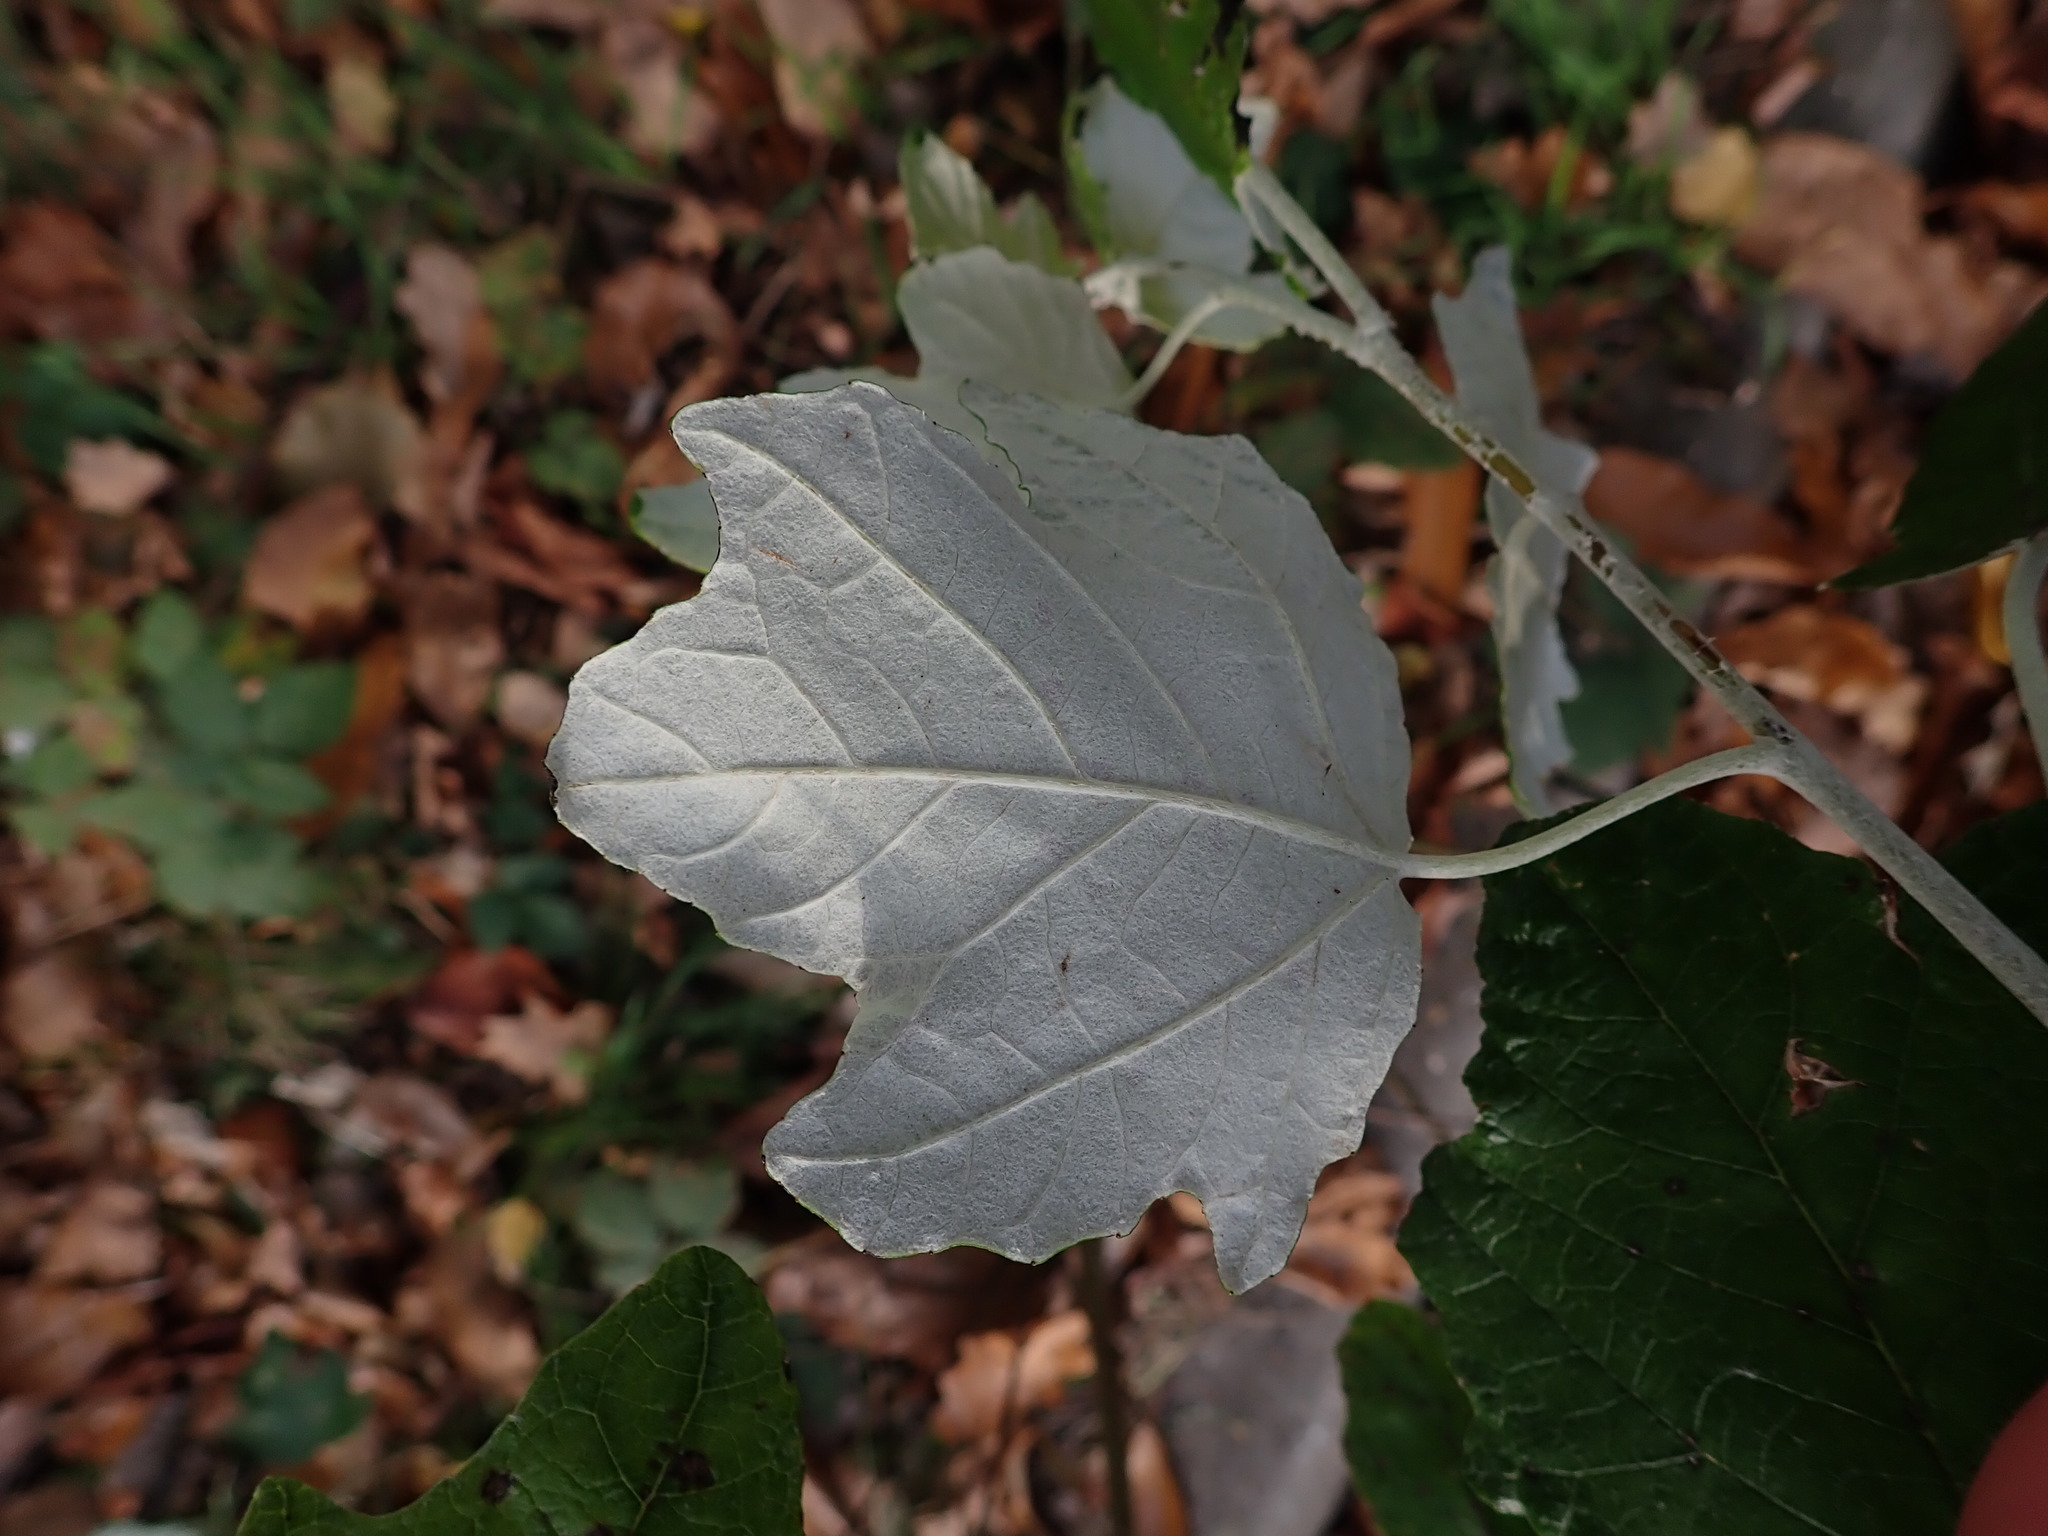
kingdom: Plantae
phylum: Tracheophyta
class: Magnoliopsida
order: Malpighiales
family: Salicaceae
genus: Populus
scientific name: Populus alba
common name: White poplar
